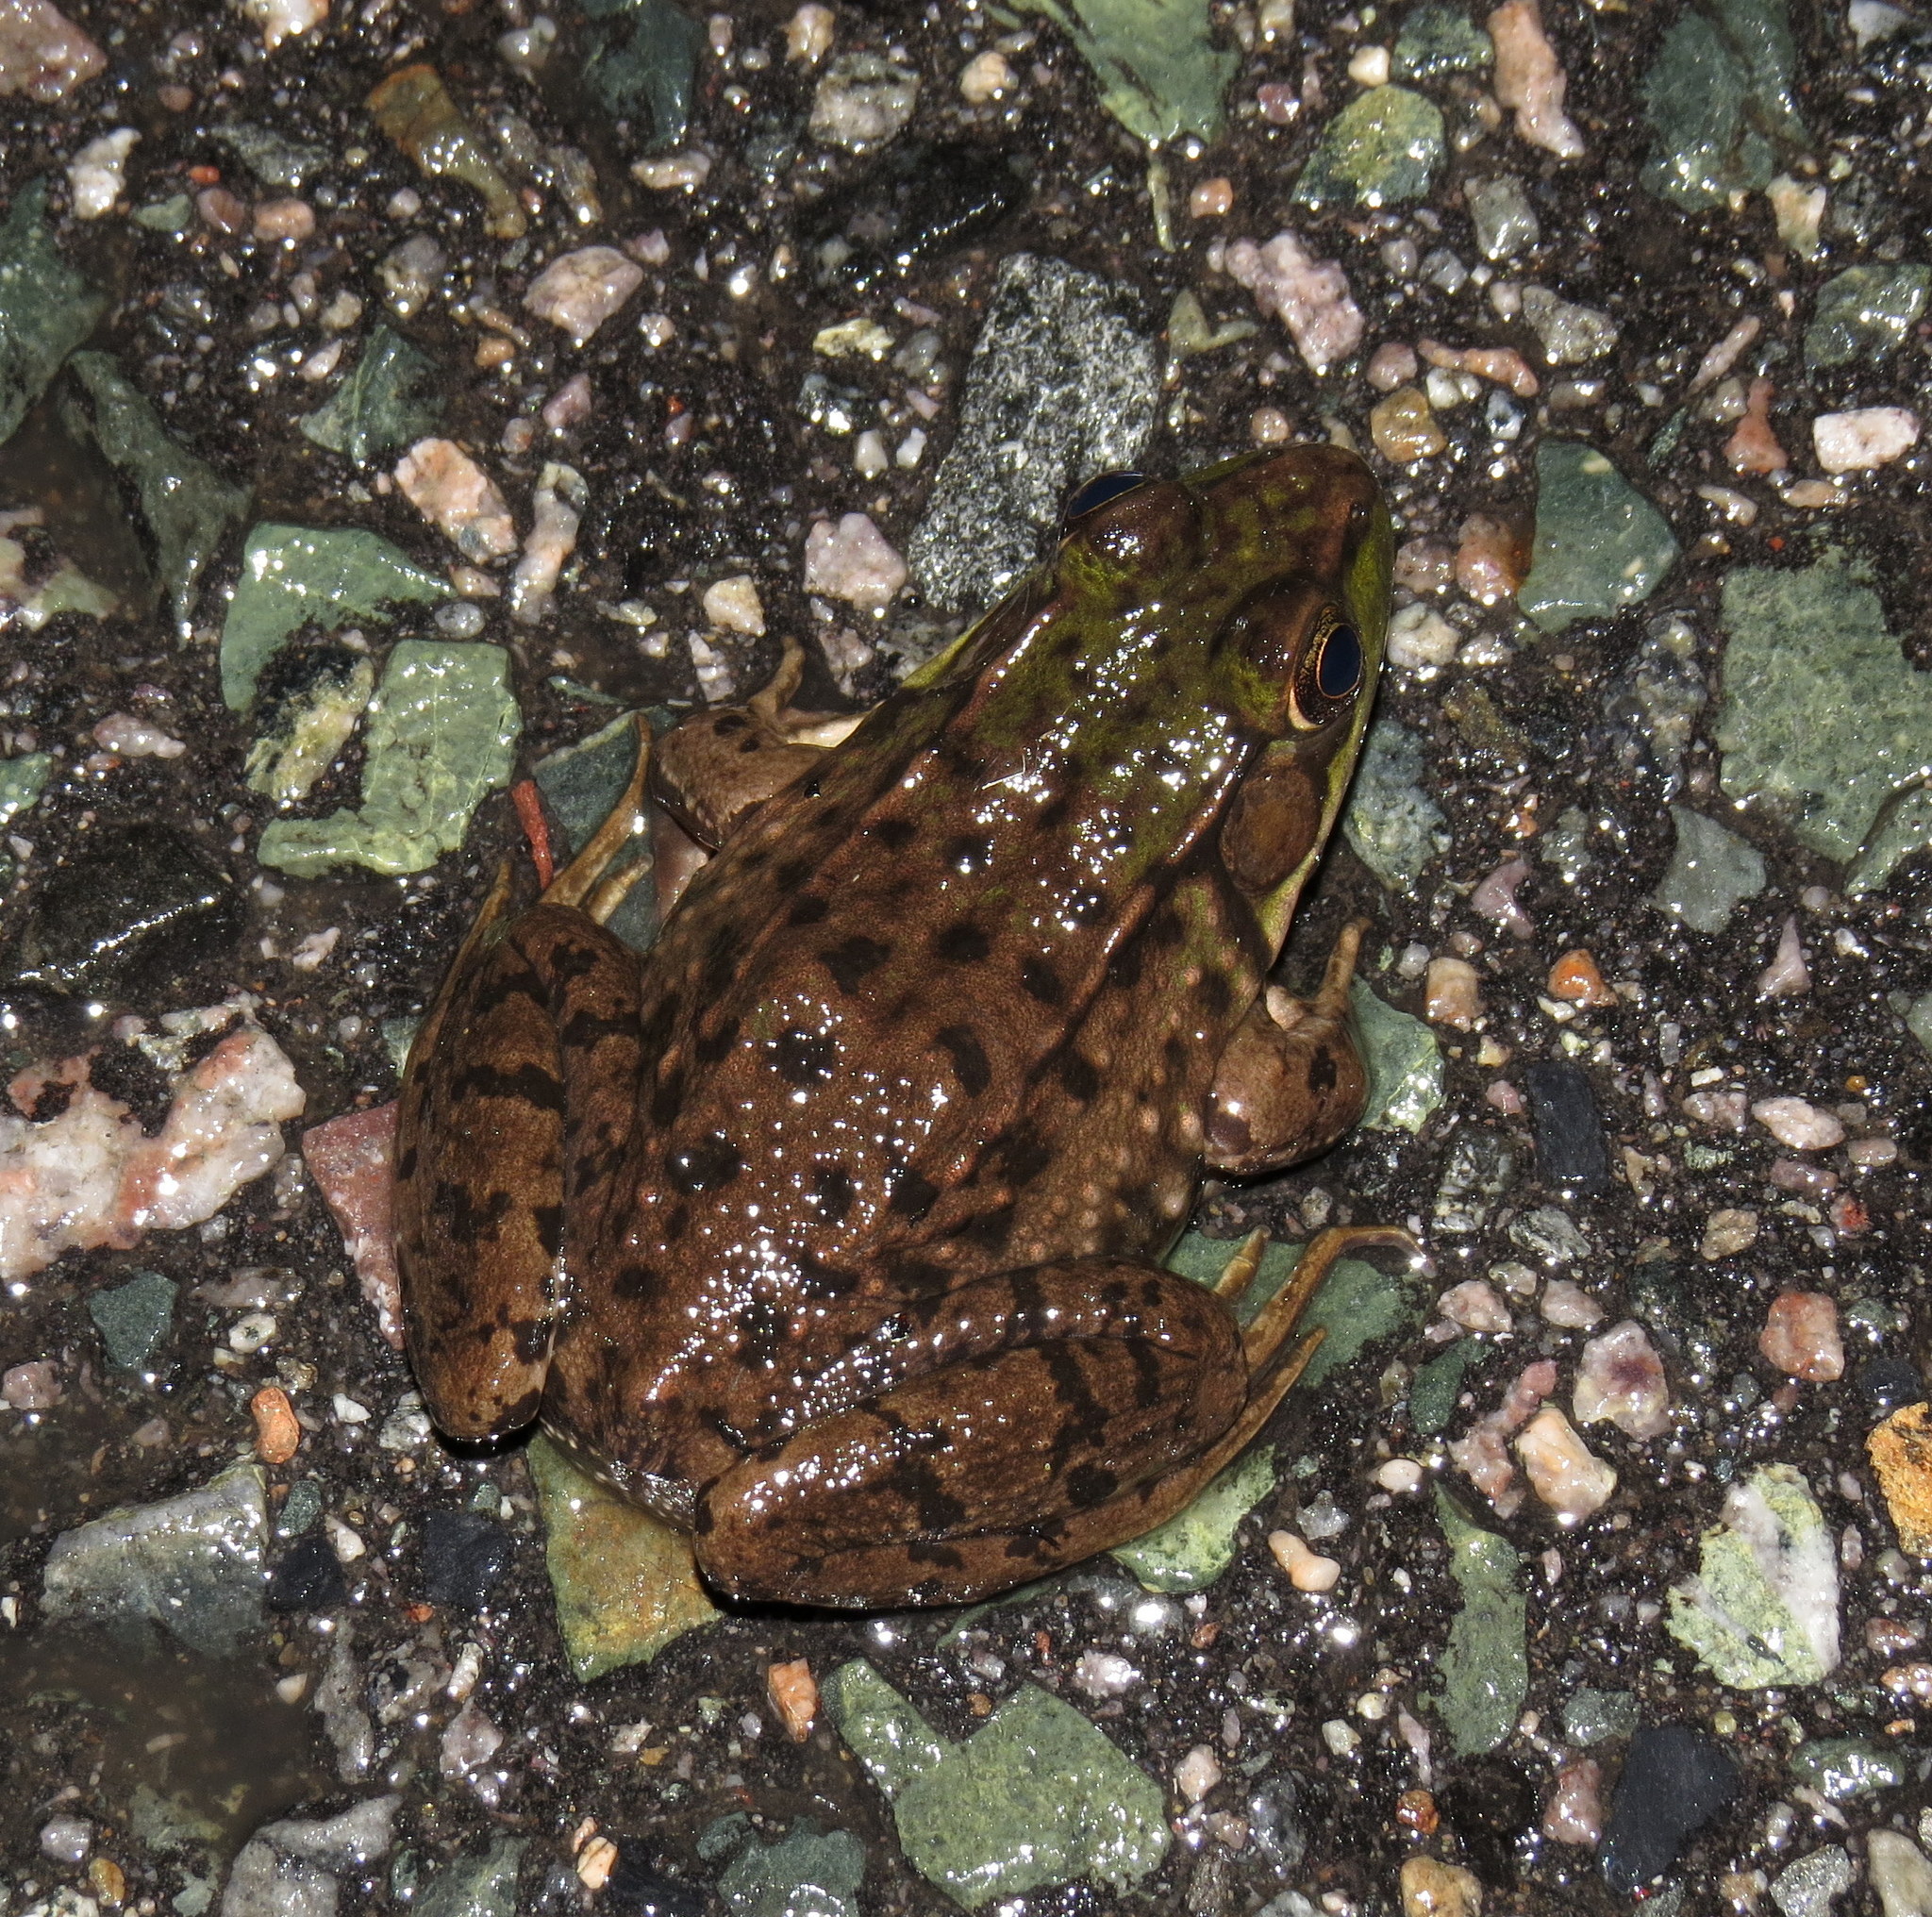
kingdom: Animalia
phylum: Chordata
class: Amphibia
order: Anura
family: Ranidae
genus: Lithobates
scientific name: Lithobates clamitans
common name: Green frog
